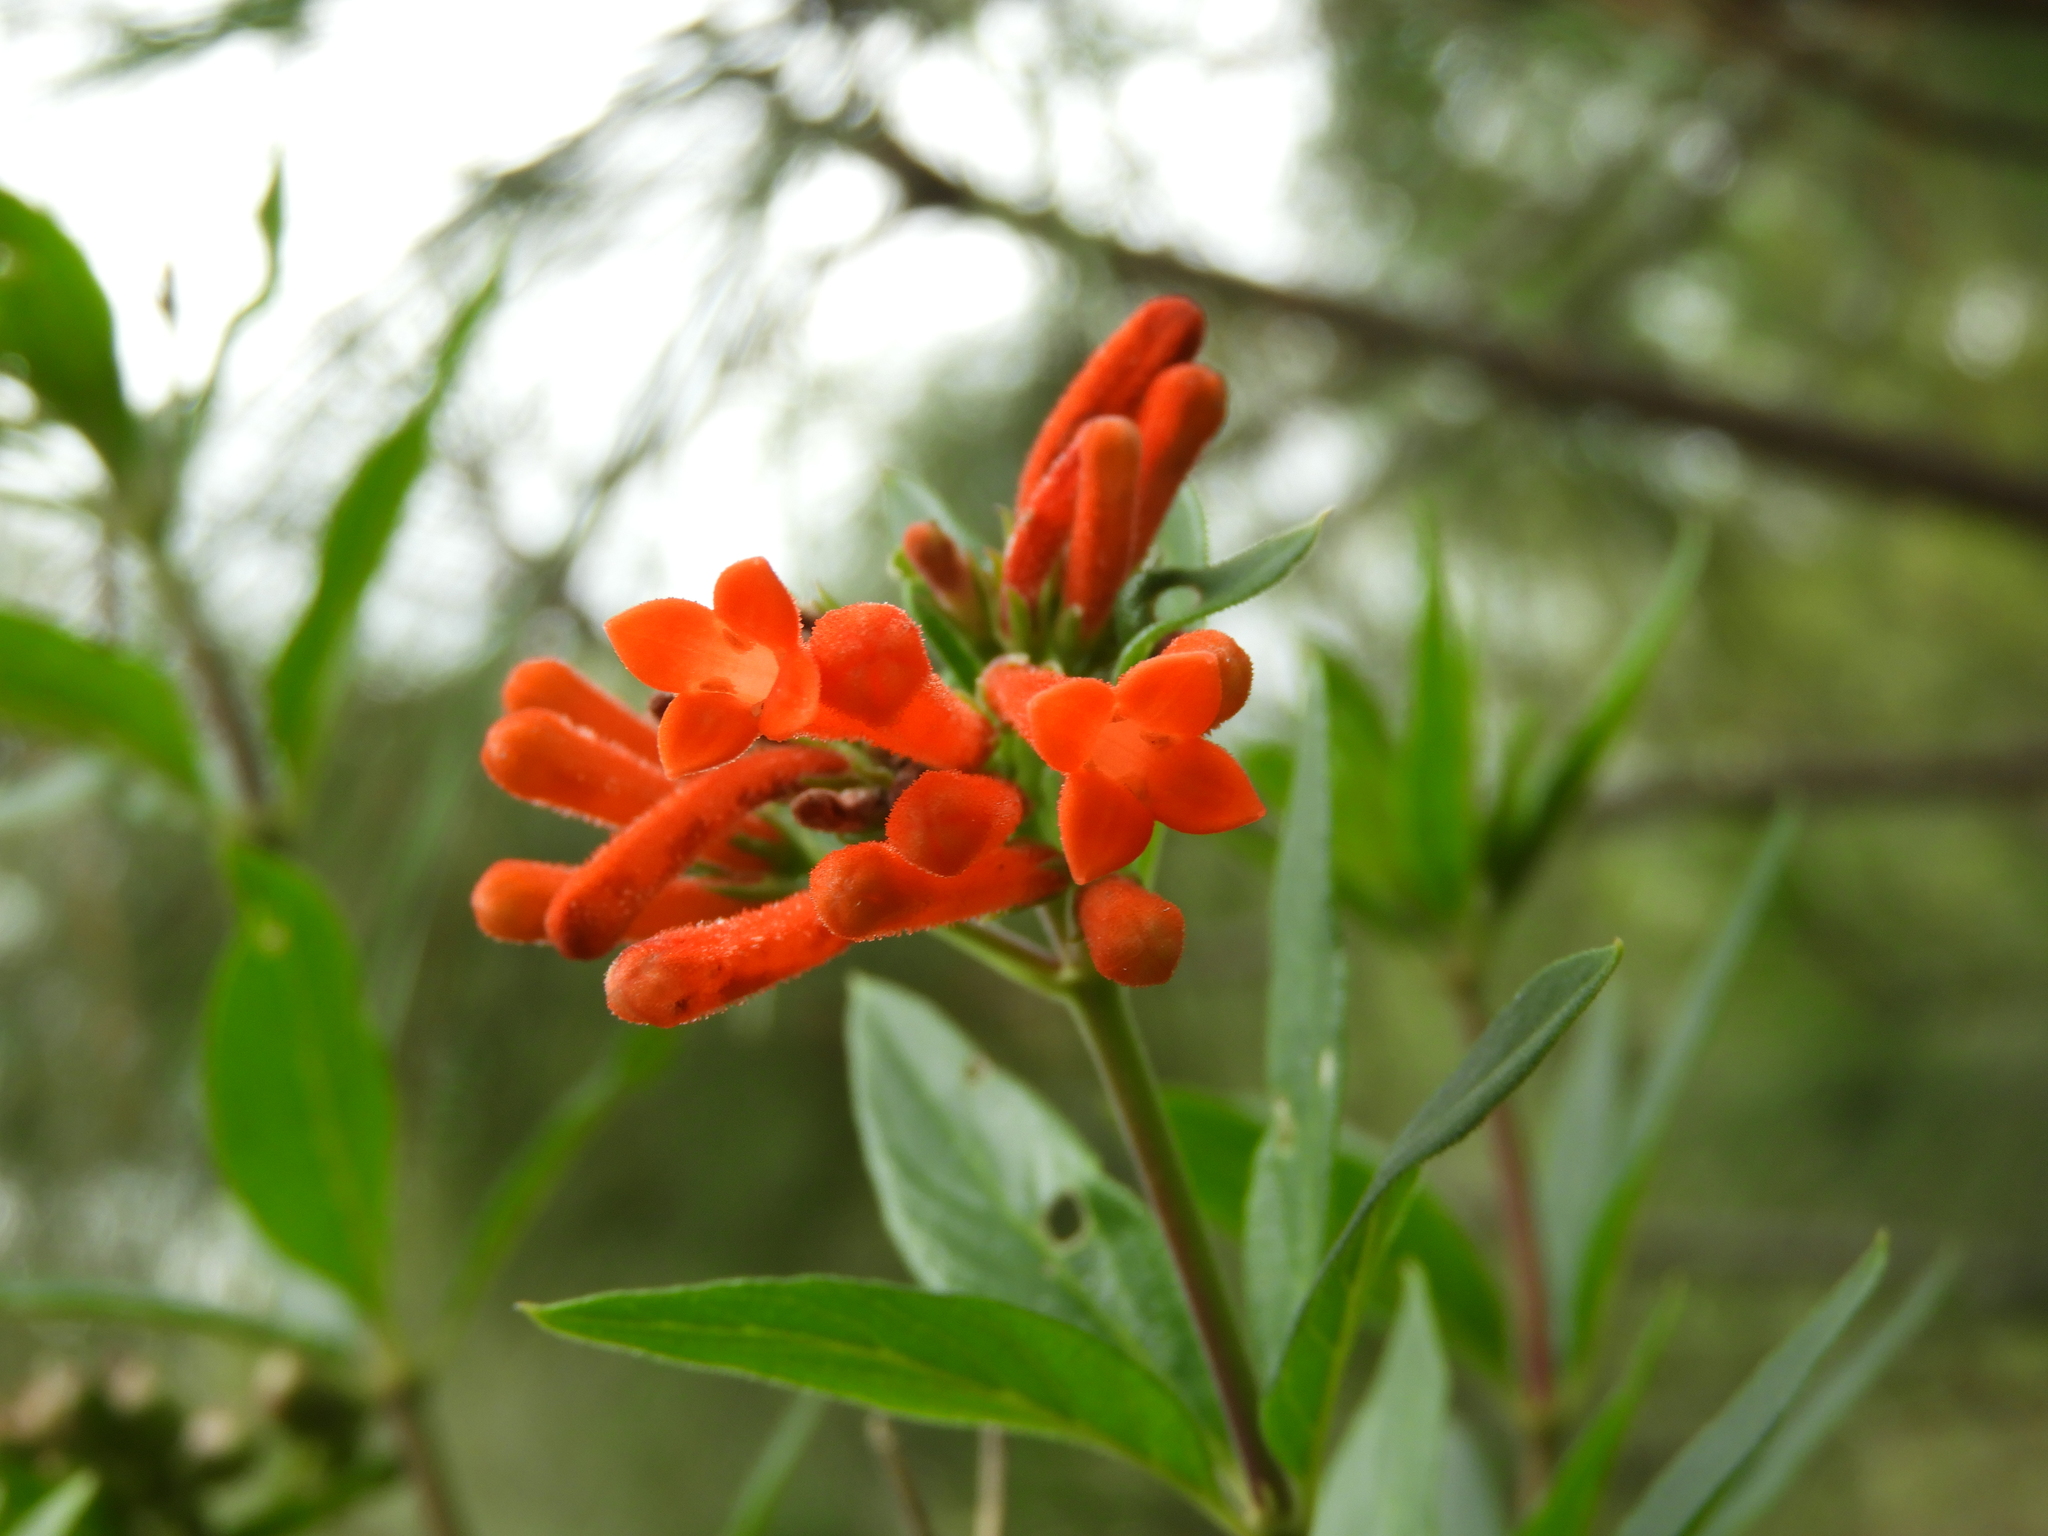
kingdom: Plantae
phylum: Tracheophyta
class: Magnoliopsida
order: Gentianales
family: Rubiaceae
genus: Bouvardia
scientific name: Bouvardia ternifolia
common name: Scarlet bouvardia
